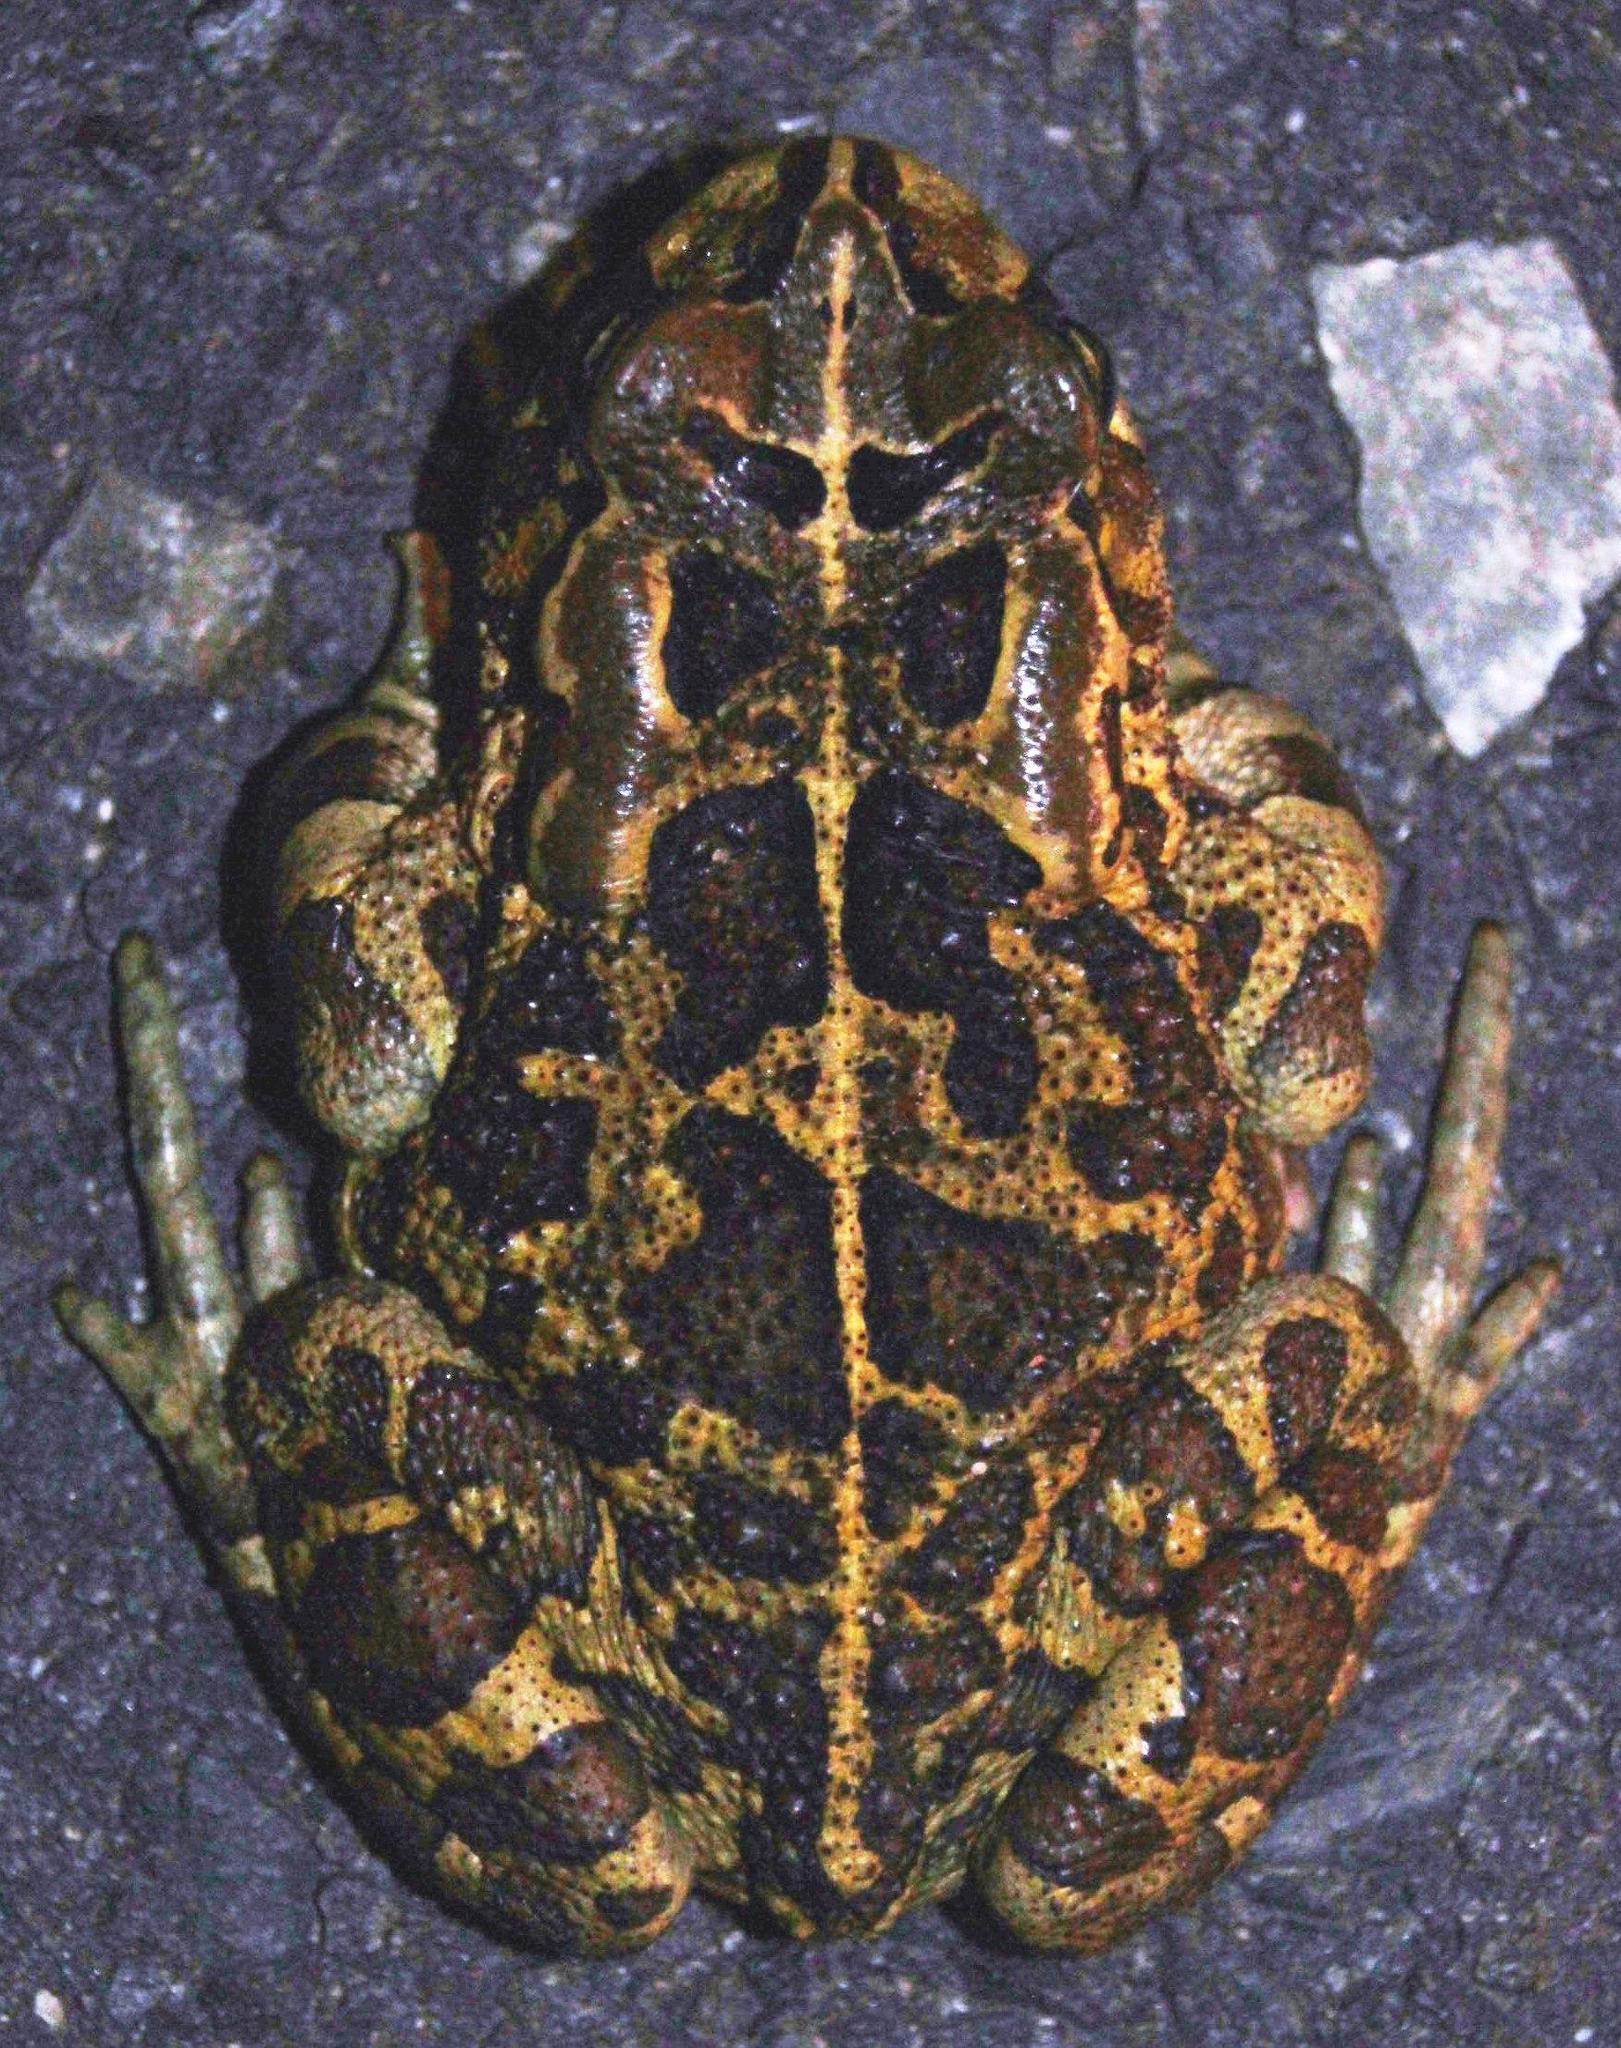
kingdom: Animalia
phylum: Chordata
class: Amphibia
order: Anura
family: Bufonidae
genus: Sclerophrys
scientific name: Sclerophrys pantherina
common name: Panther toad
